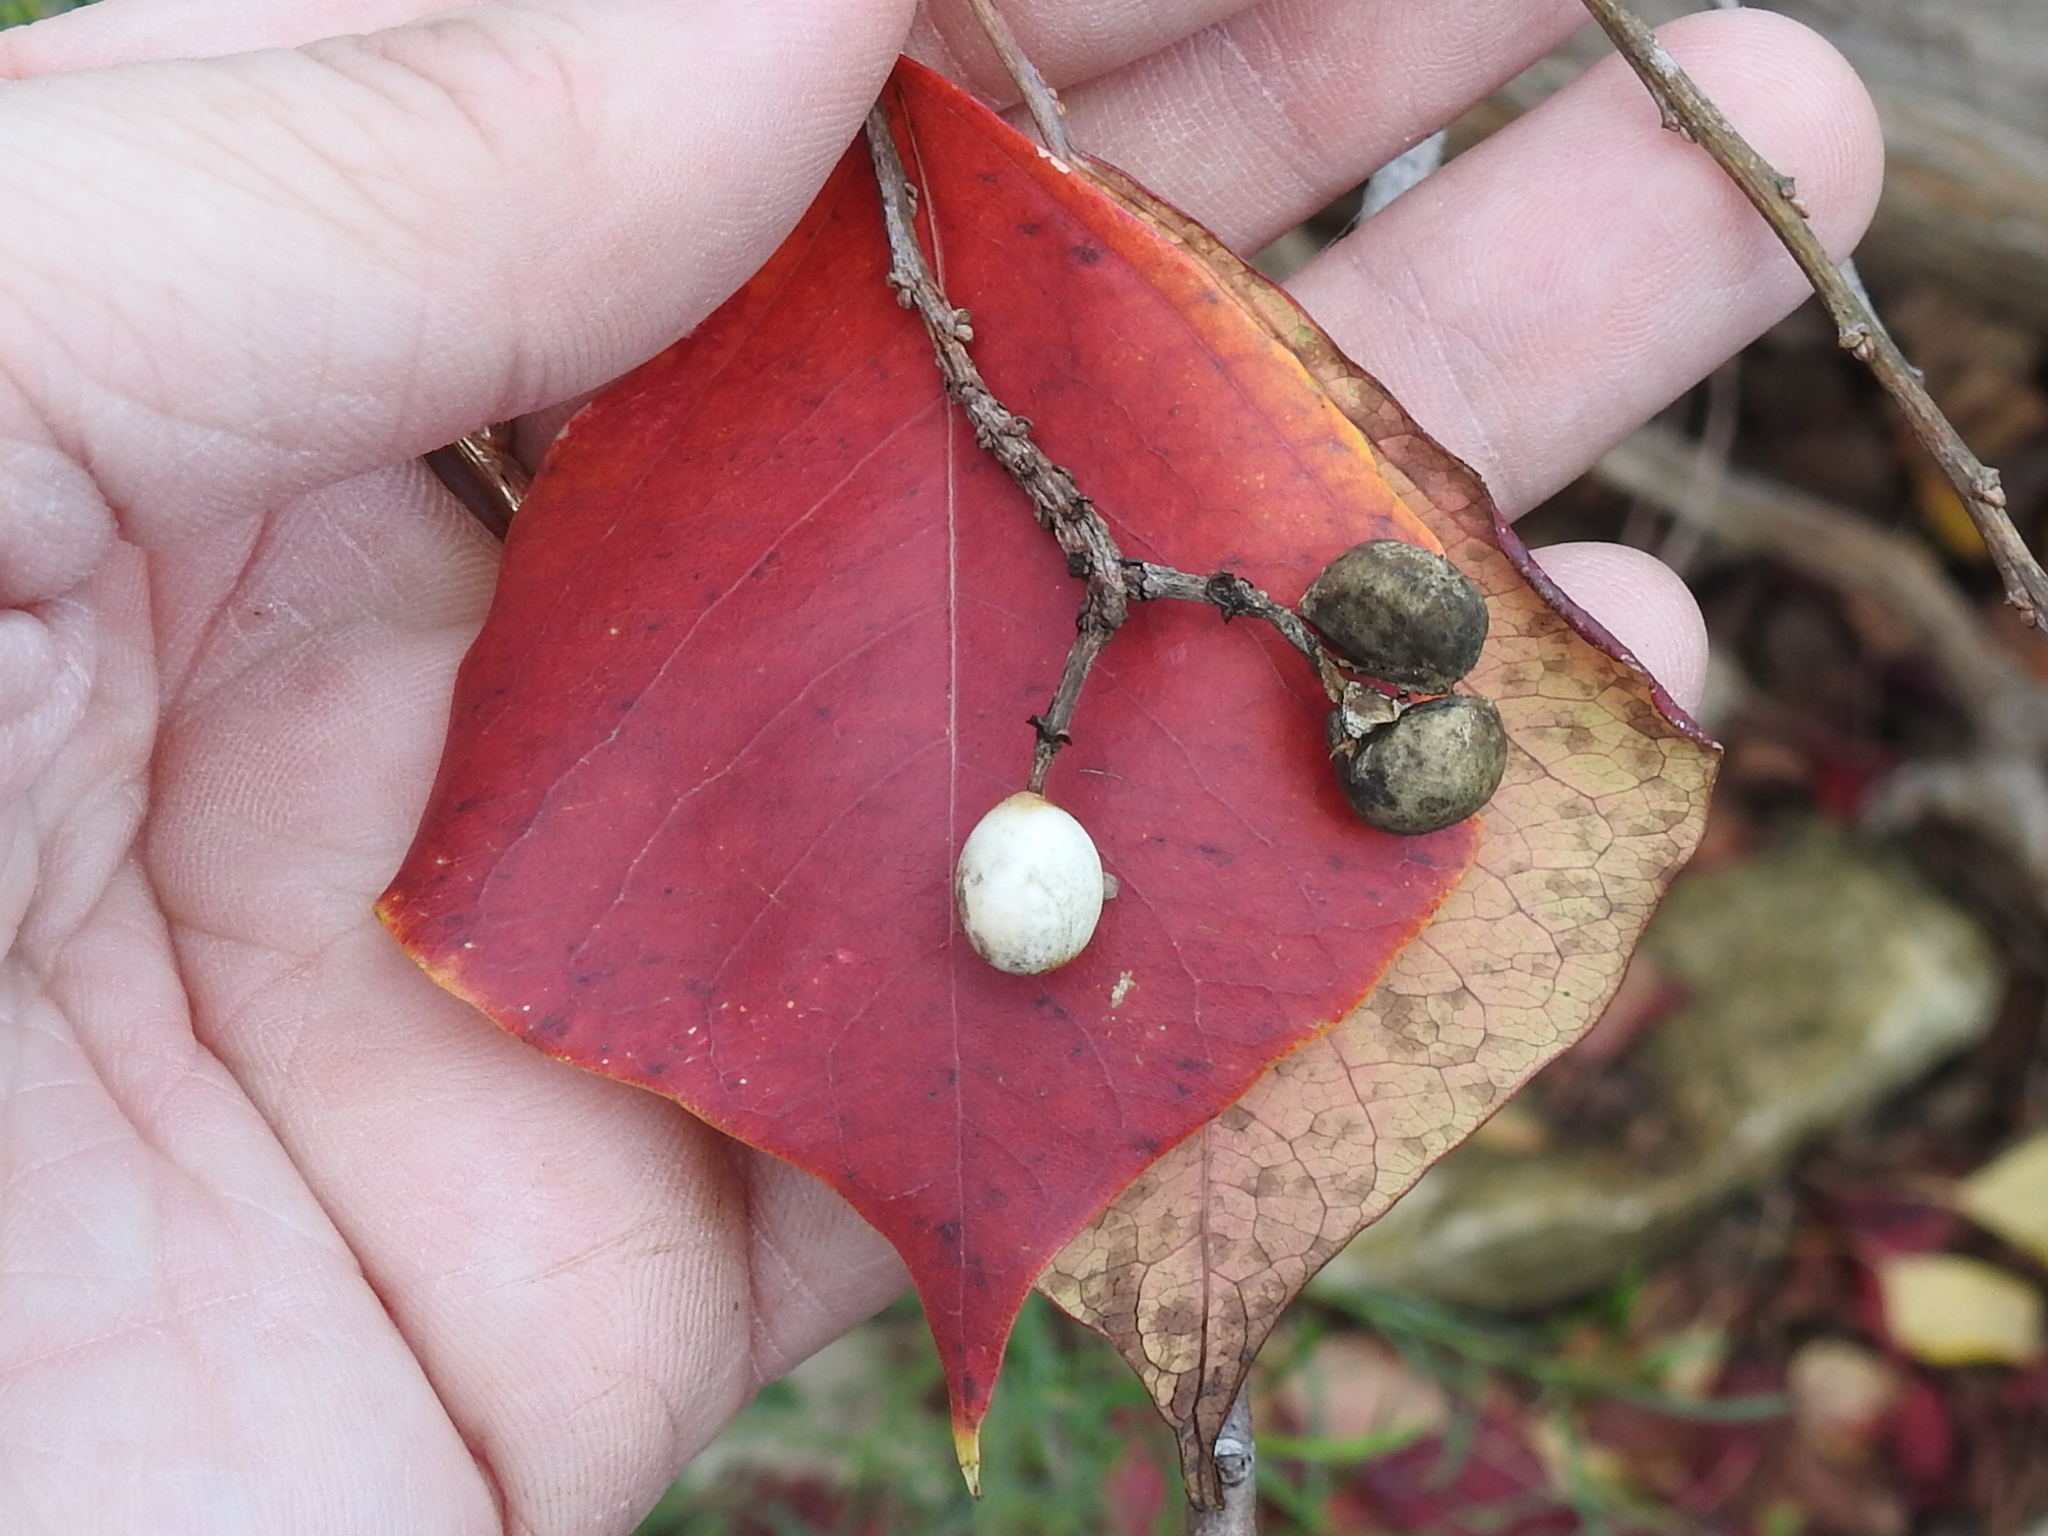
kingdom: Plantae
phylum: Tracheophyta
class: Magnoliopsida
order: Malpighiales
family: Euphorbiaceae
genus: Triadica
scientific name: Triadica sebifera
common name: Chinese tallow
